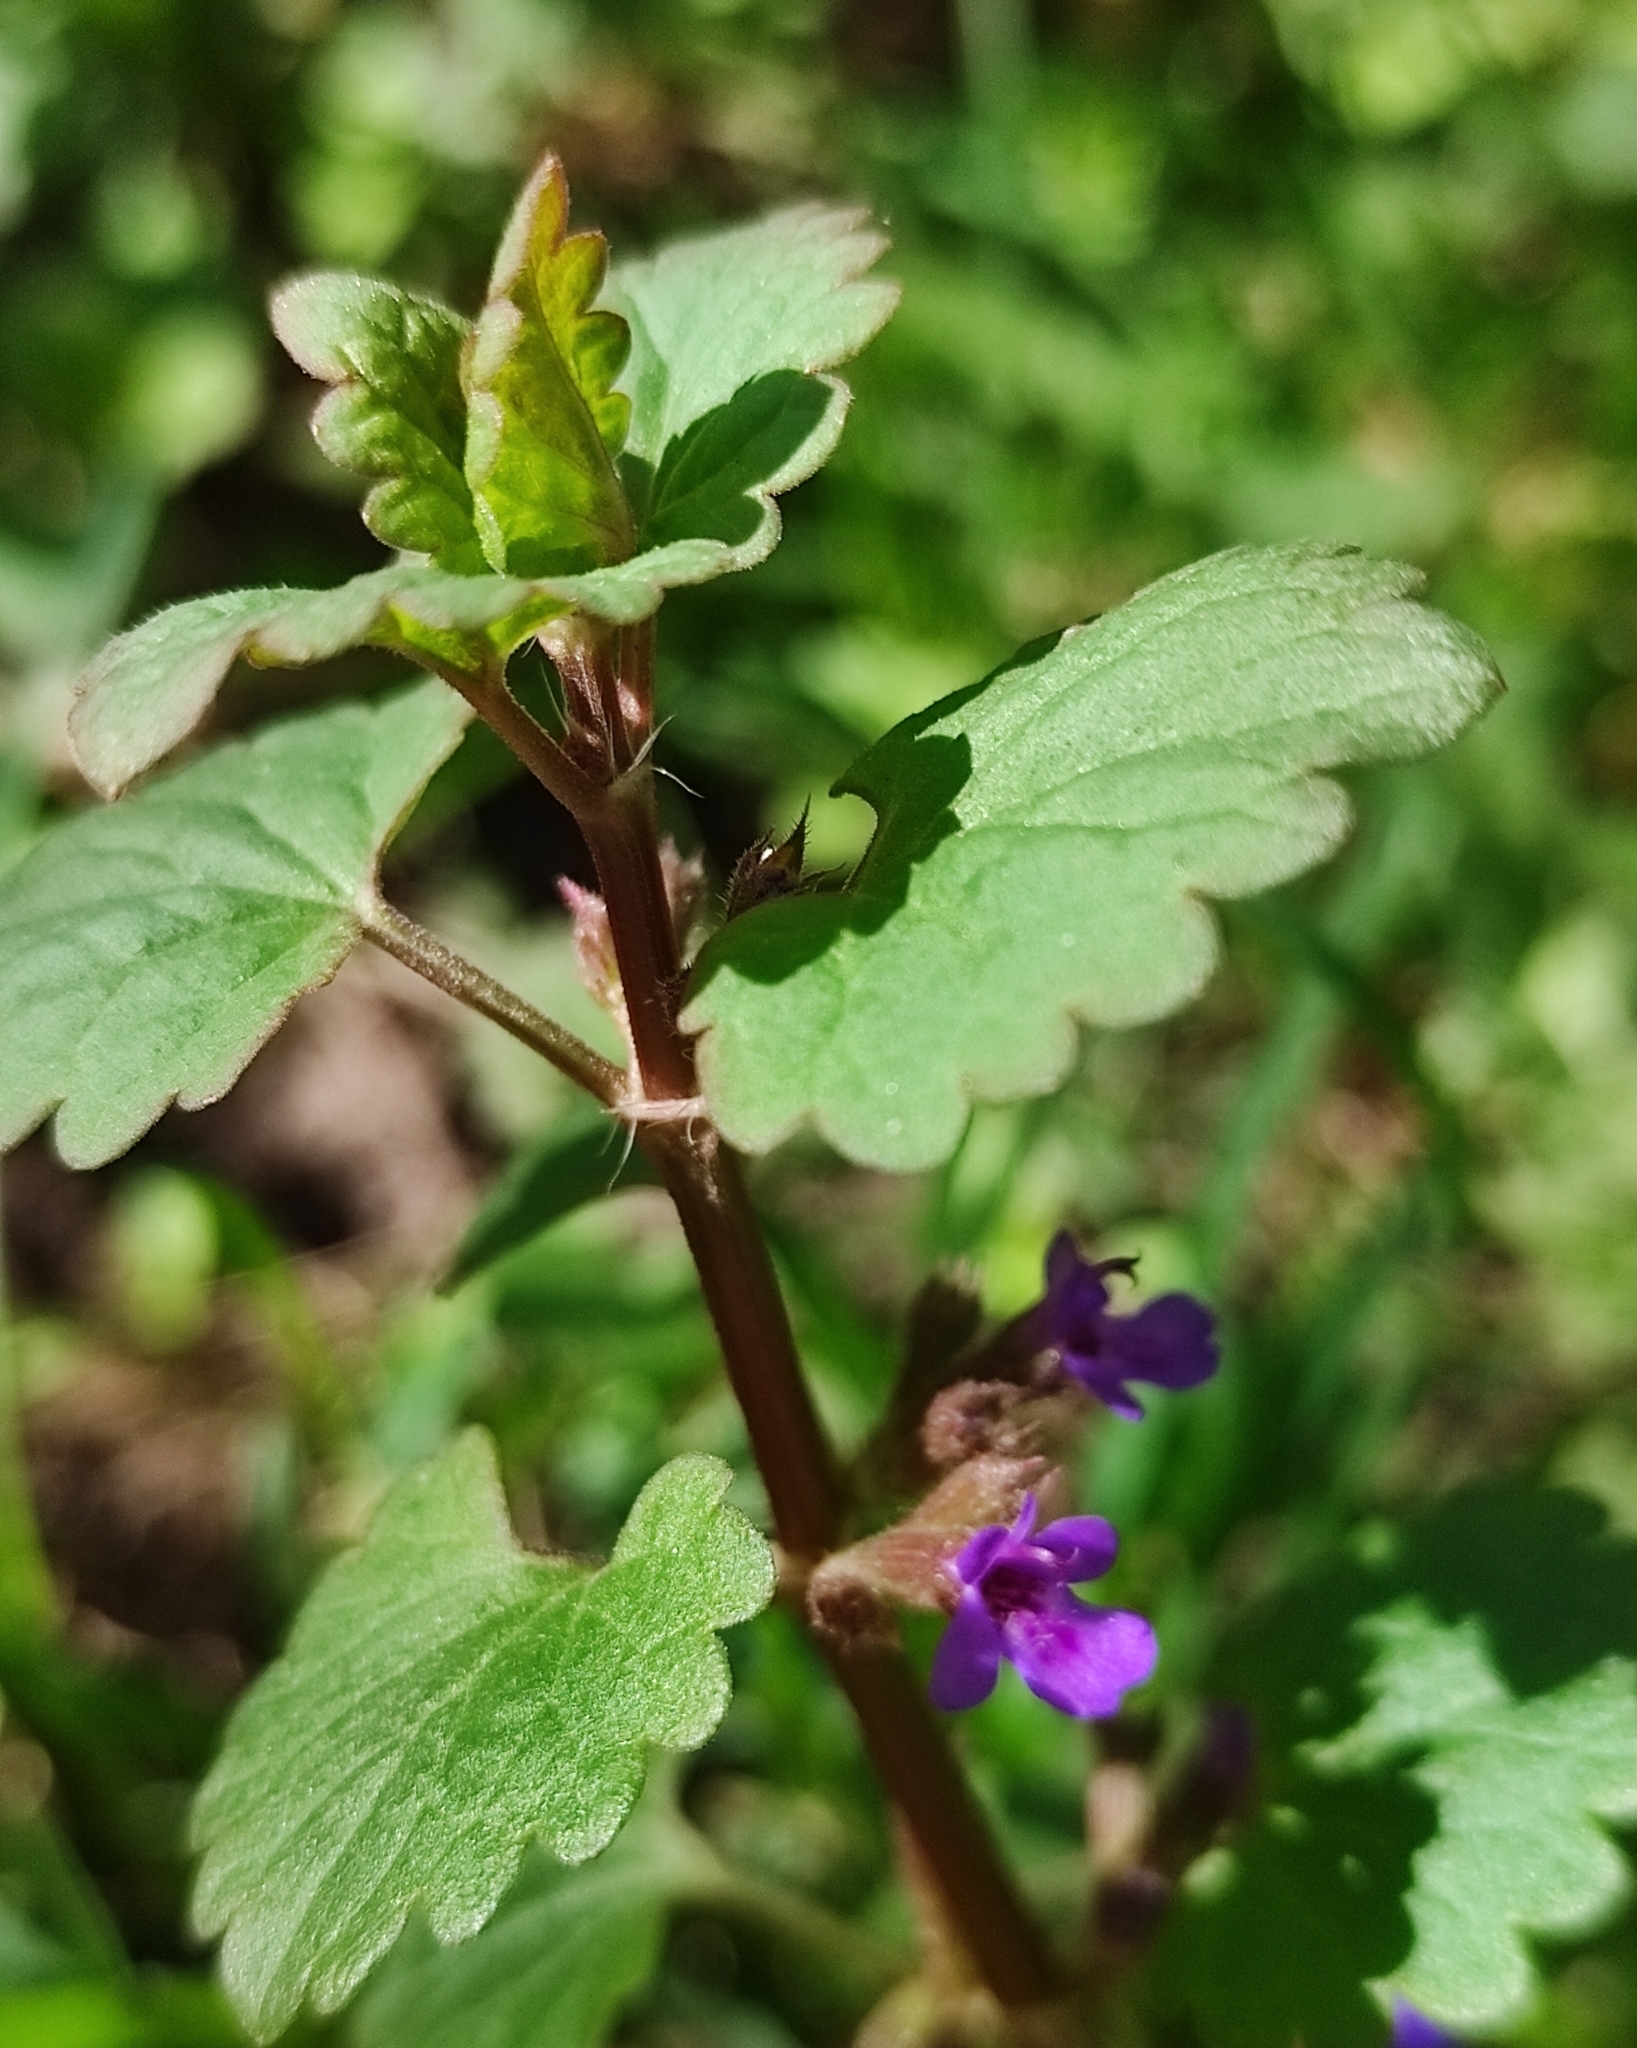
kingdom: Plantae
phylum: Tracheophyta
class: Magnoliopsida
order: Lamiales
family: Lamiaceae
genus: Glechoma
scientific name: Glechoma hederacea
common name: Ground ivy
